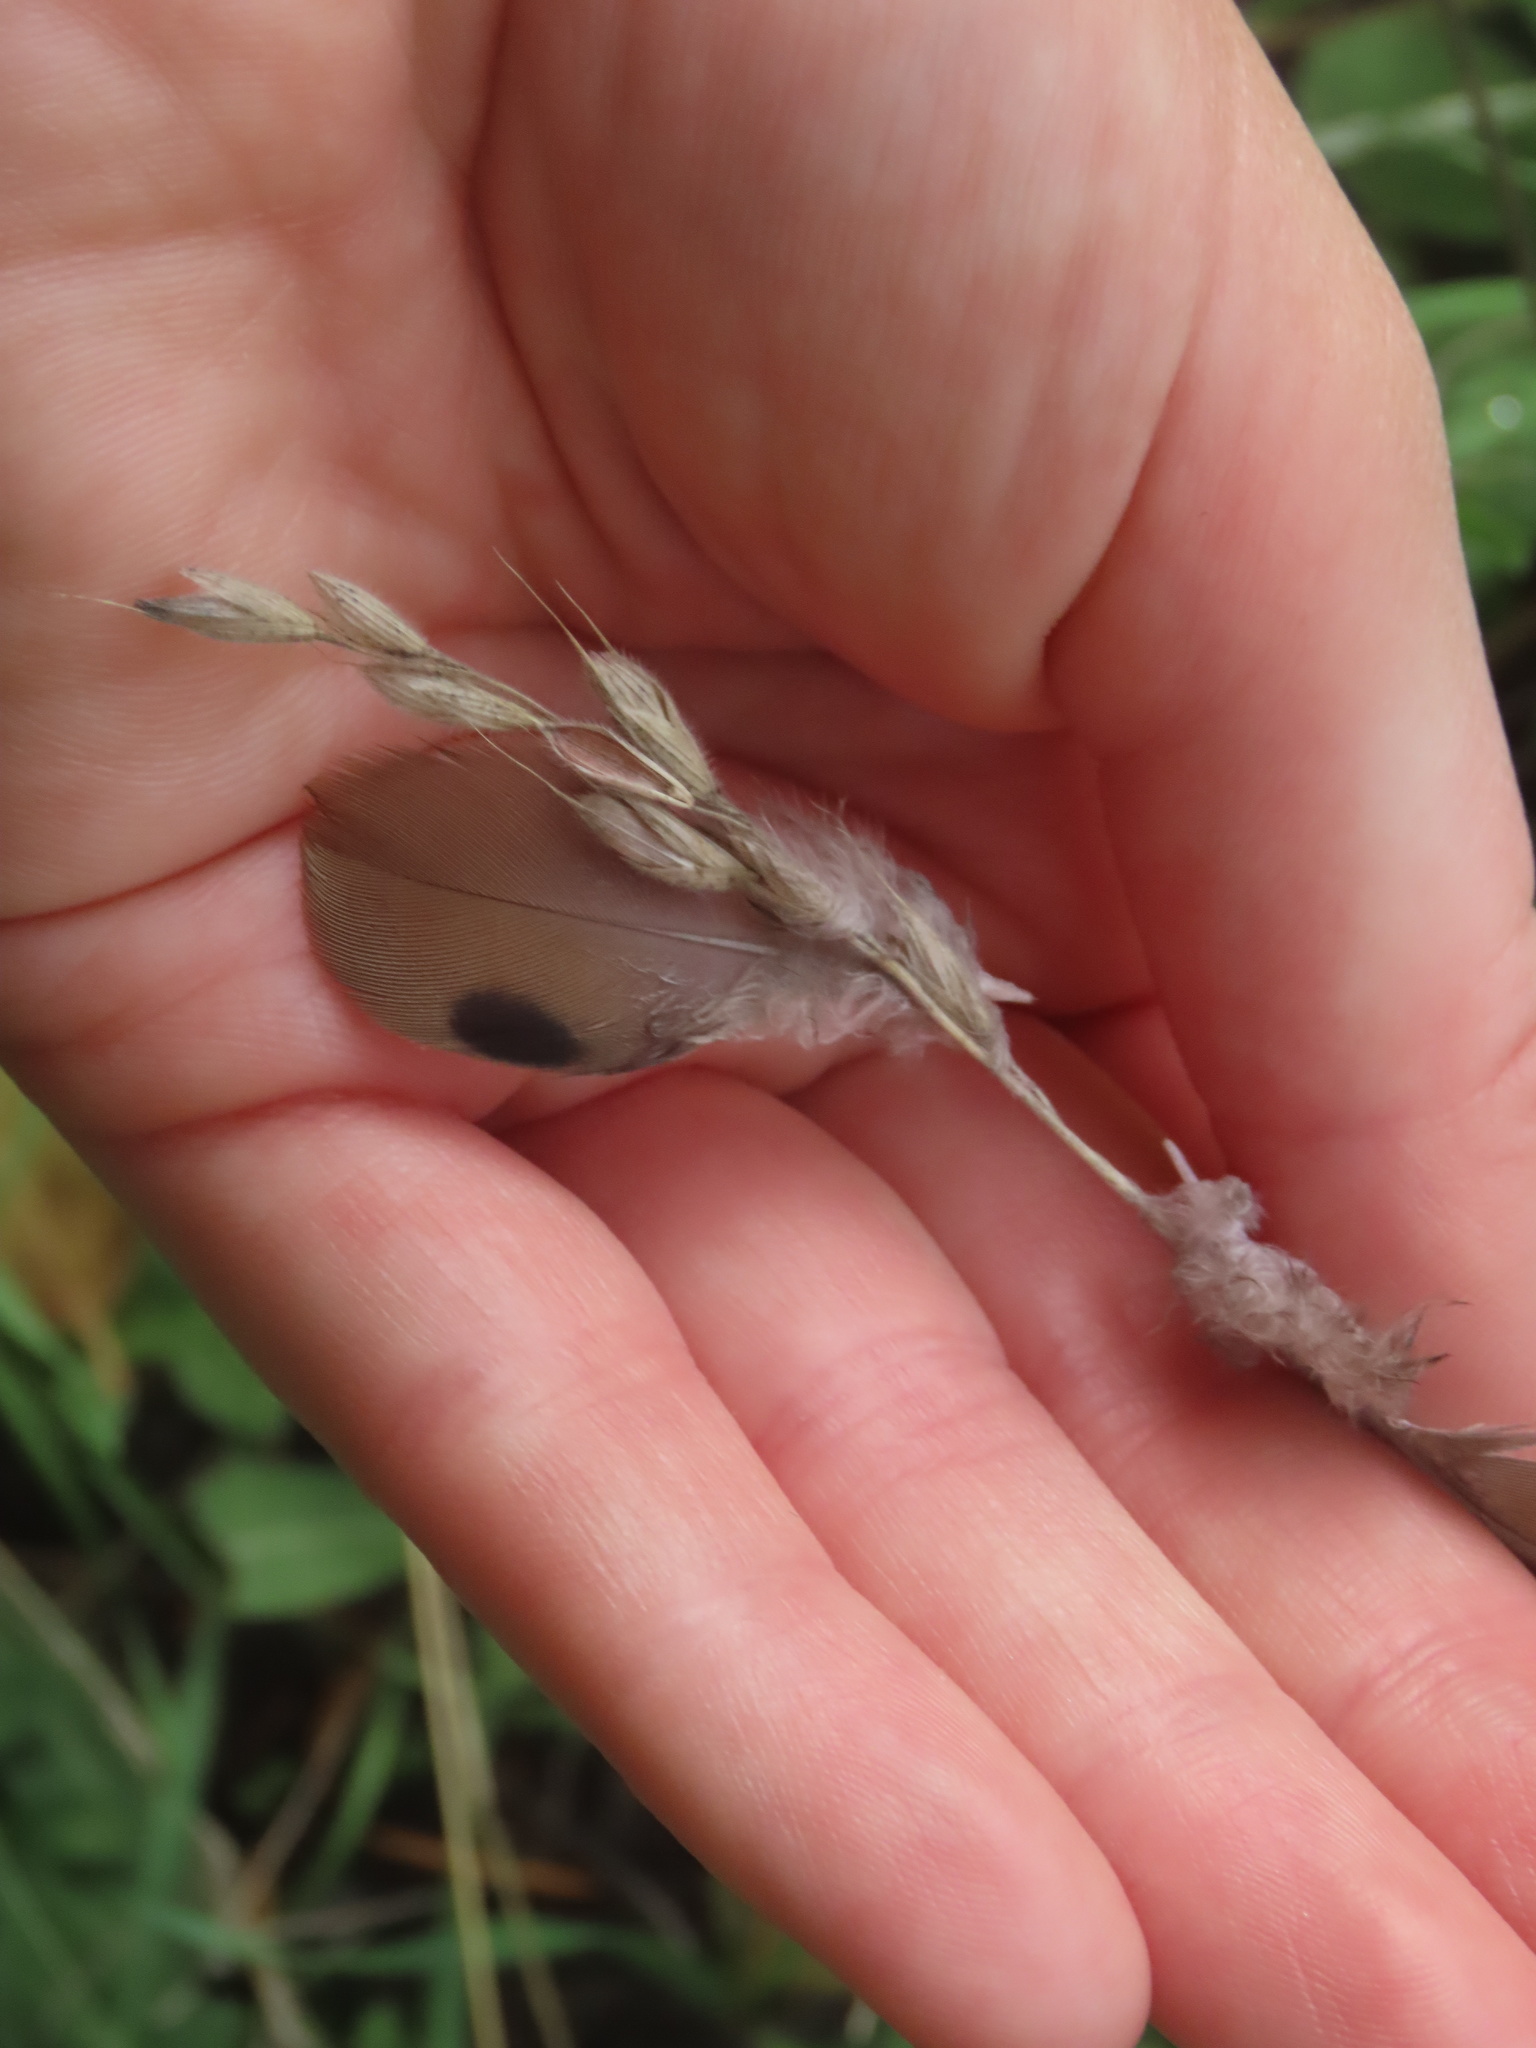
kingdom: Animalia
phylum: Chordata
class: Aves
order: Columbiformes
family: Columbidae
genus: Zenaida
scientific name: Zenaida macroura
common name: Mourning dove
